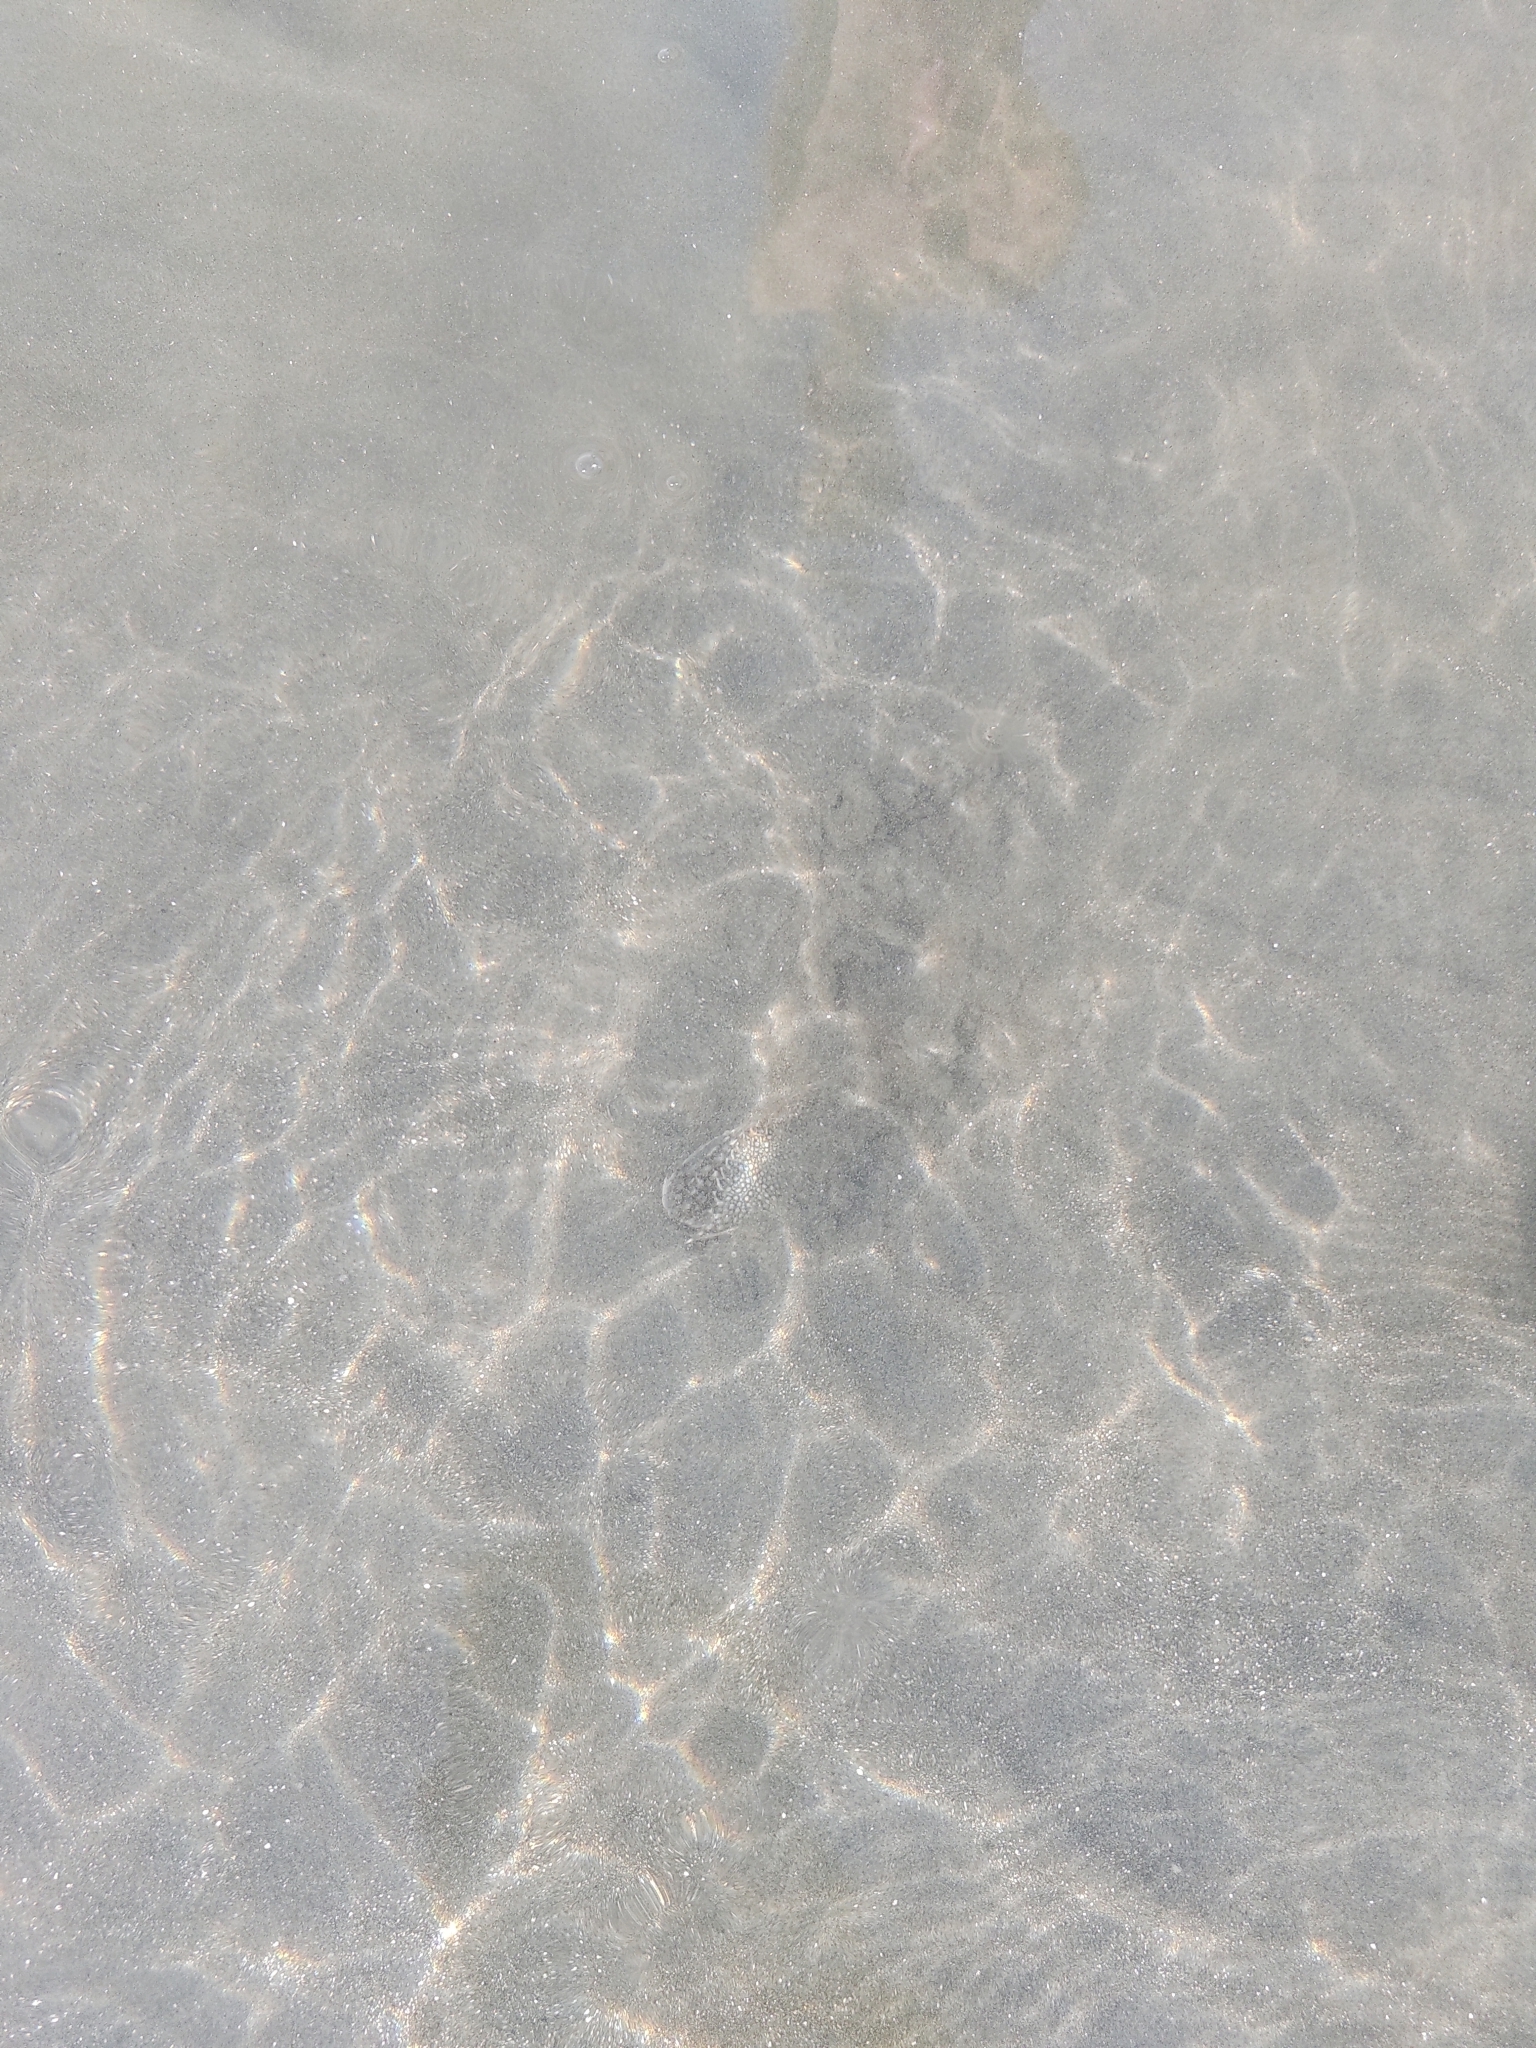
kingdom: Animalia
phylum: Arthropoda
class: Malacostraca
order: Decapoda
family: Portunidae
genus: Arenaeus
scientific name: Arenaeus cribrarius
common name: Speckled crab
